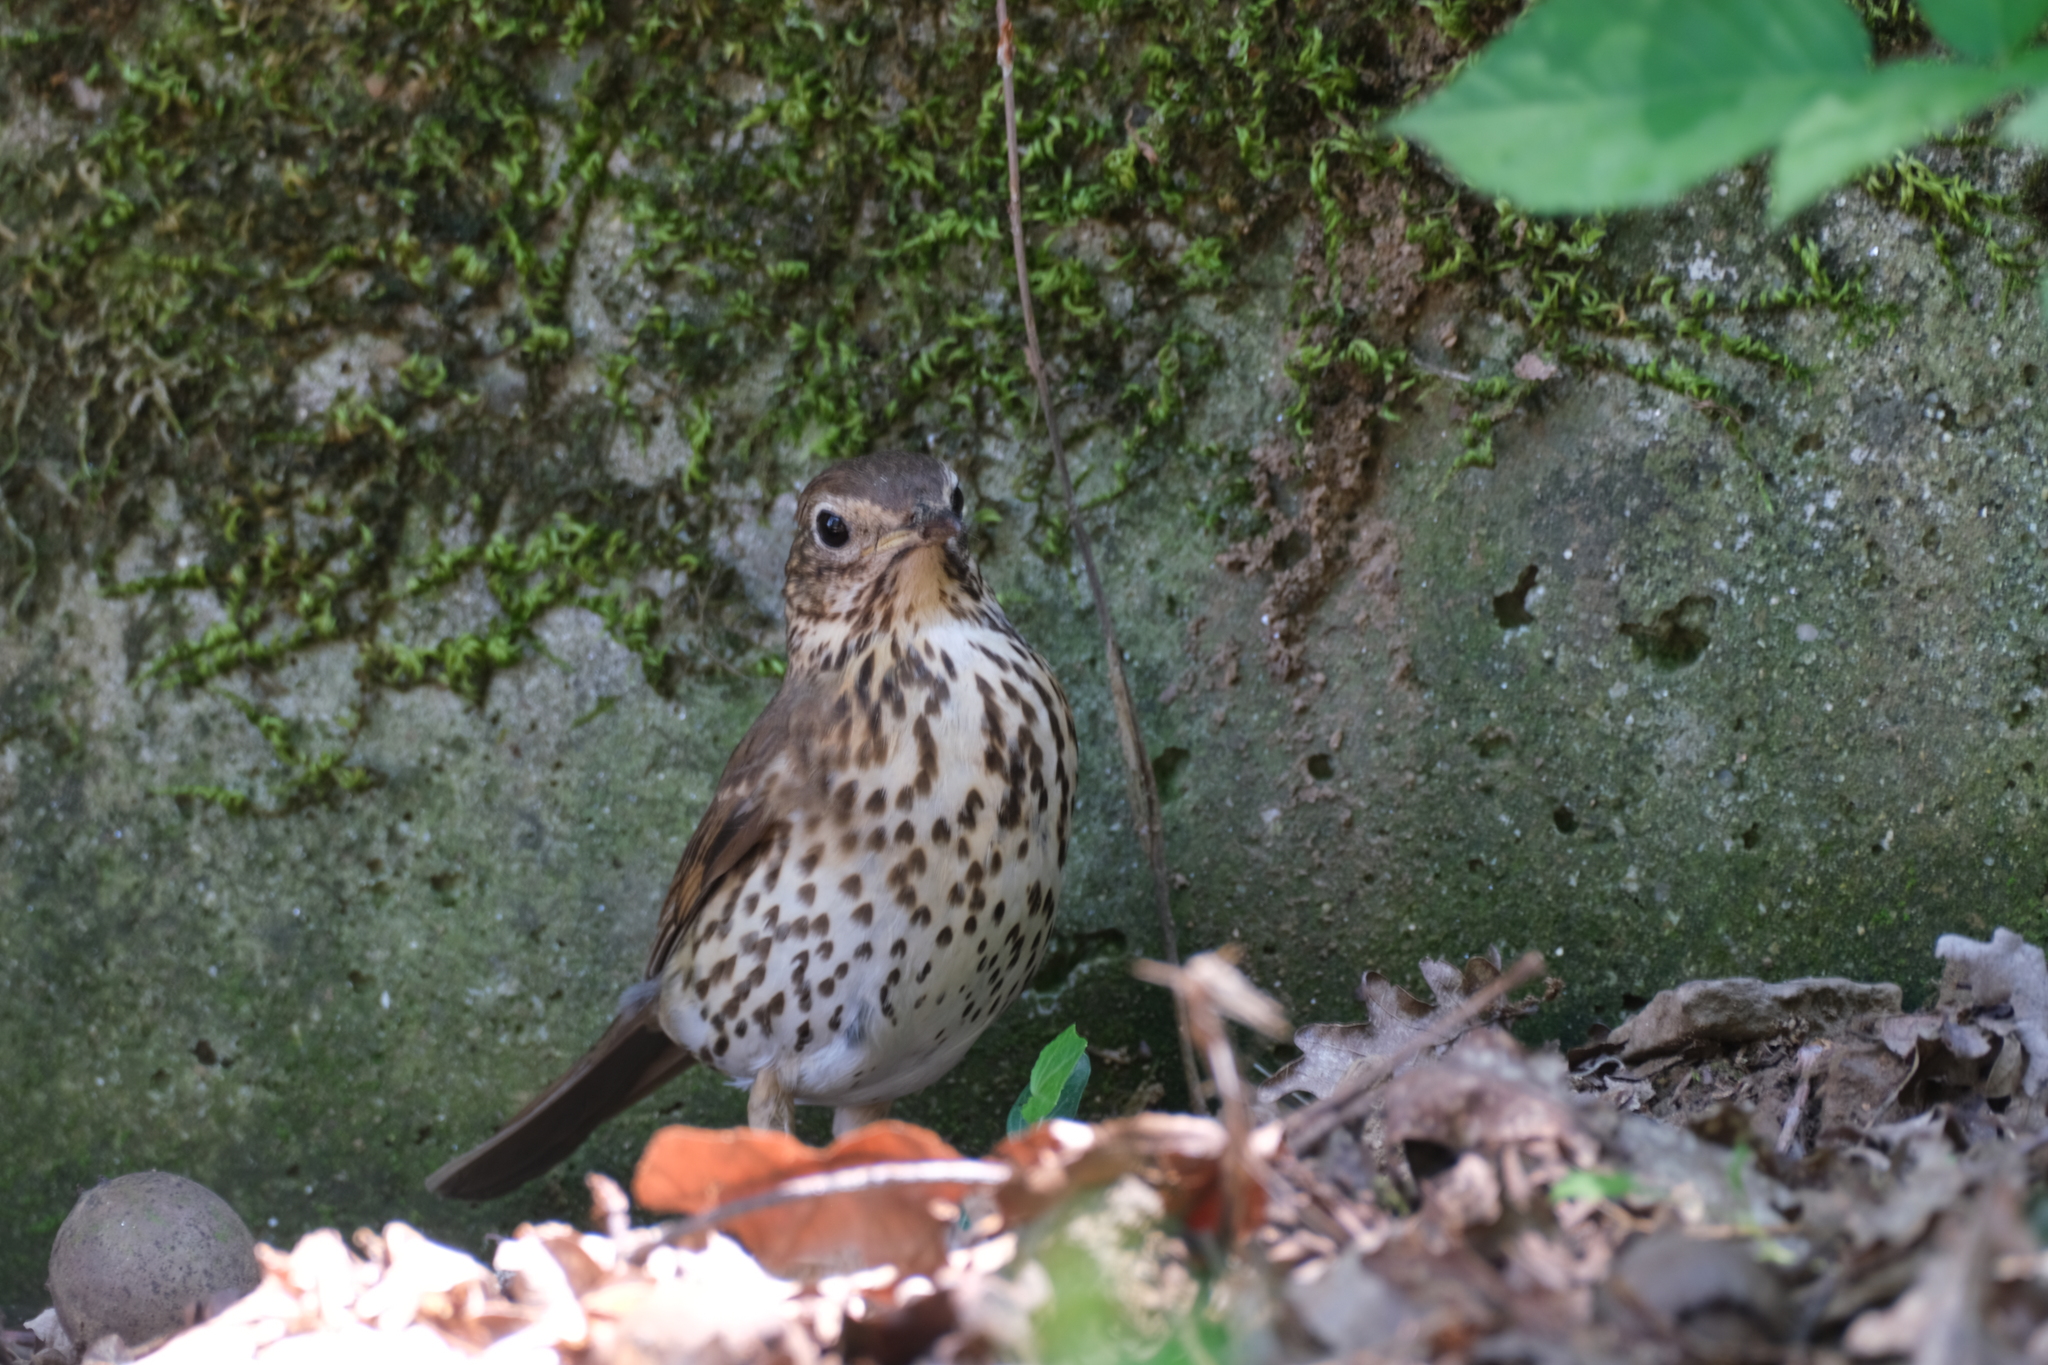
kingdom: Animalia
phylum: Chordata
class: Aves
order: Passeriformes
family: Turdidae
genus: Turdus
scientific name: Turdus philomelos
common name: Song thrush
